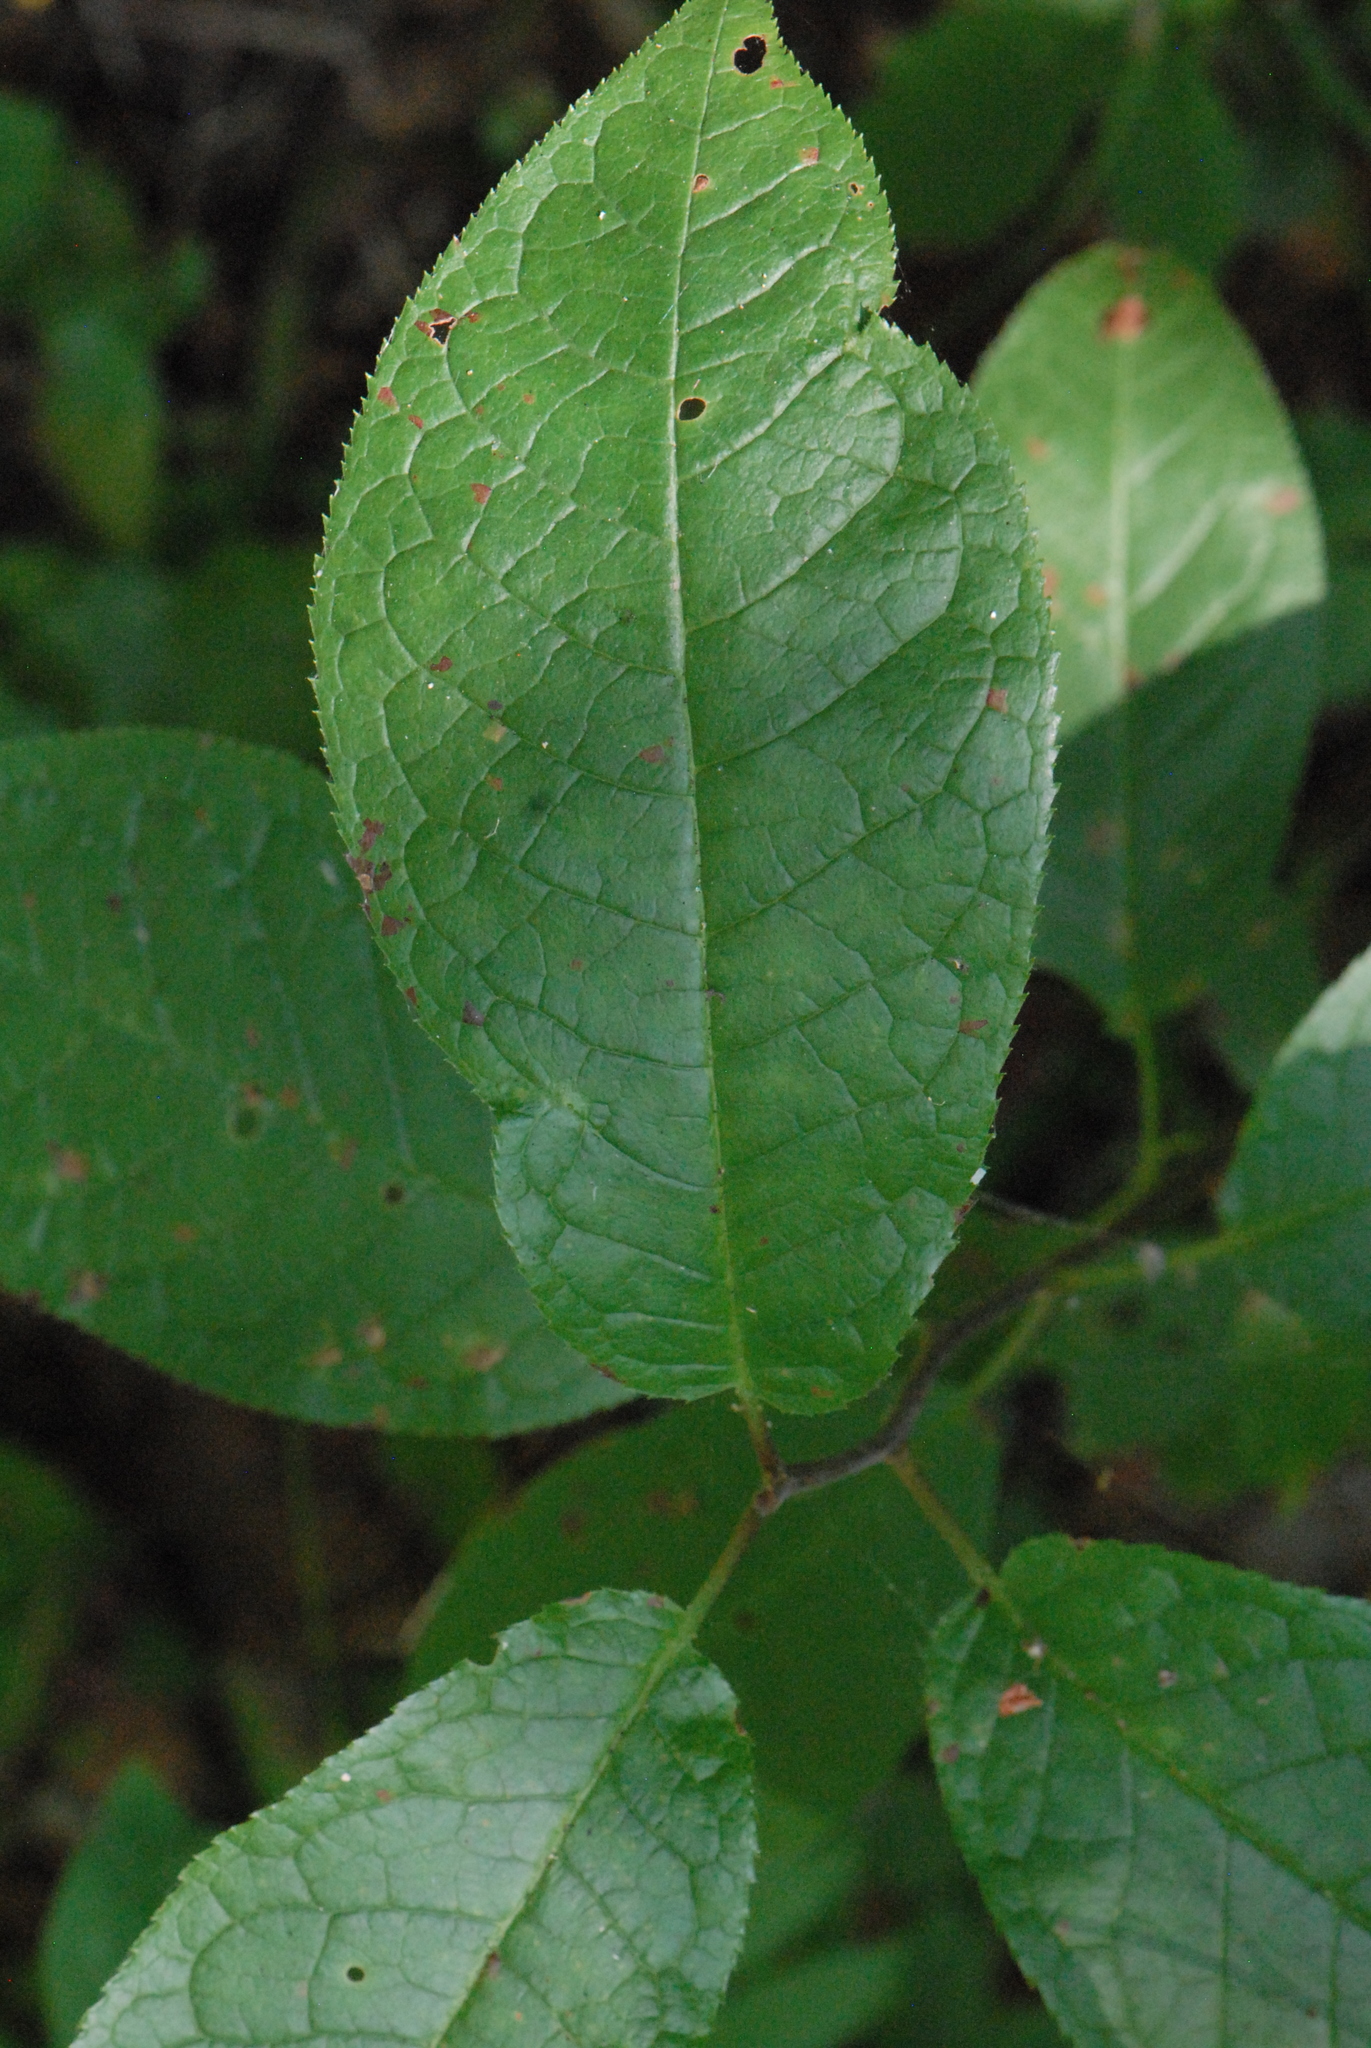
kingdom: Plantae
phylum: Tracheophyta
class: Magnoliopsida
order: Rosales
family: Rosaceae
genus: Prunus
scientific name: Prunus padus
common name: Bird cherry
